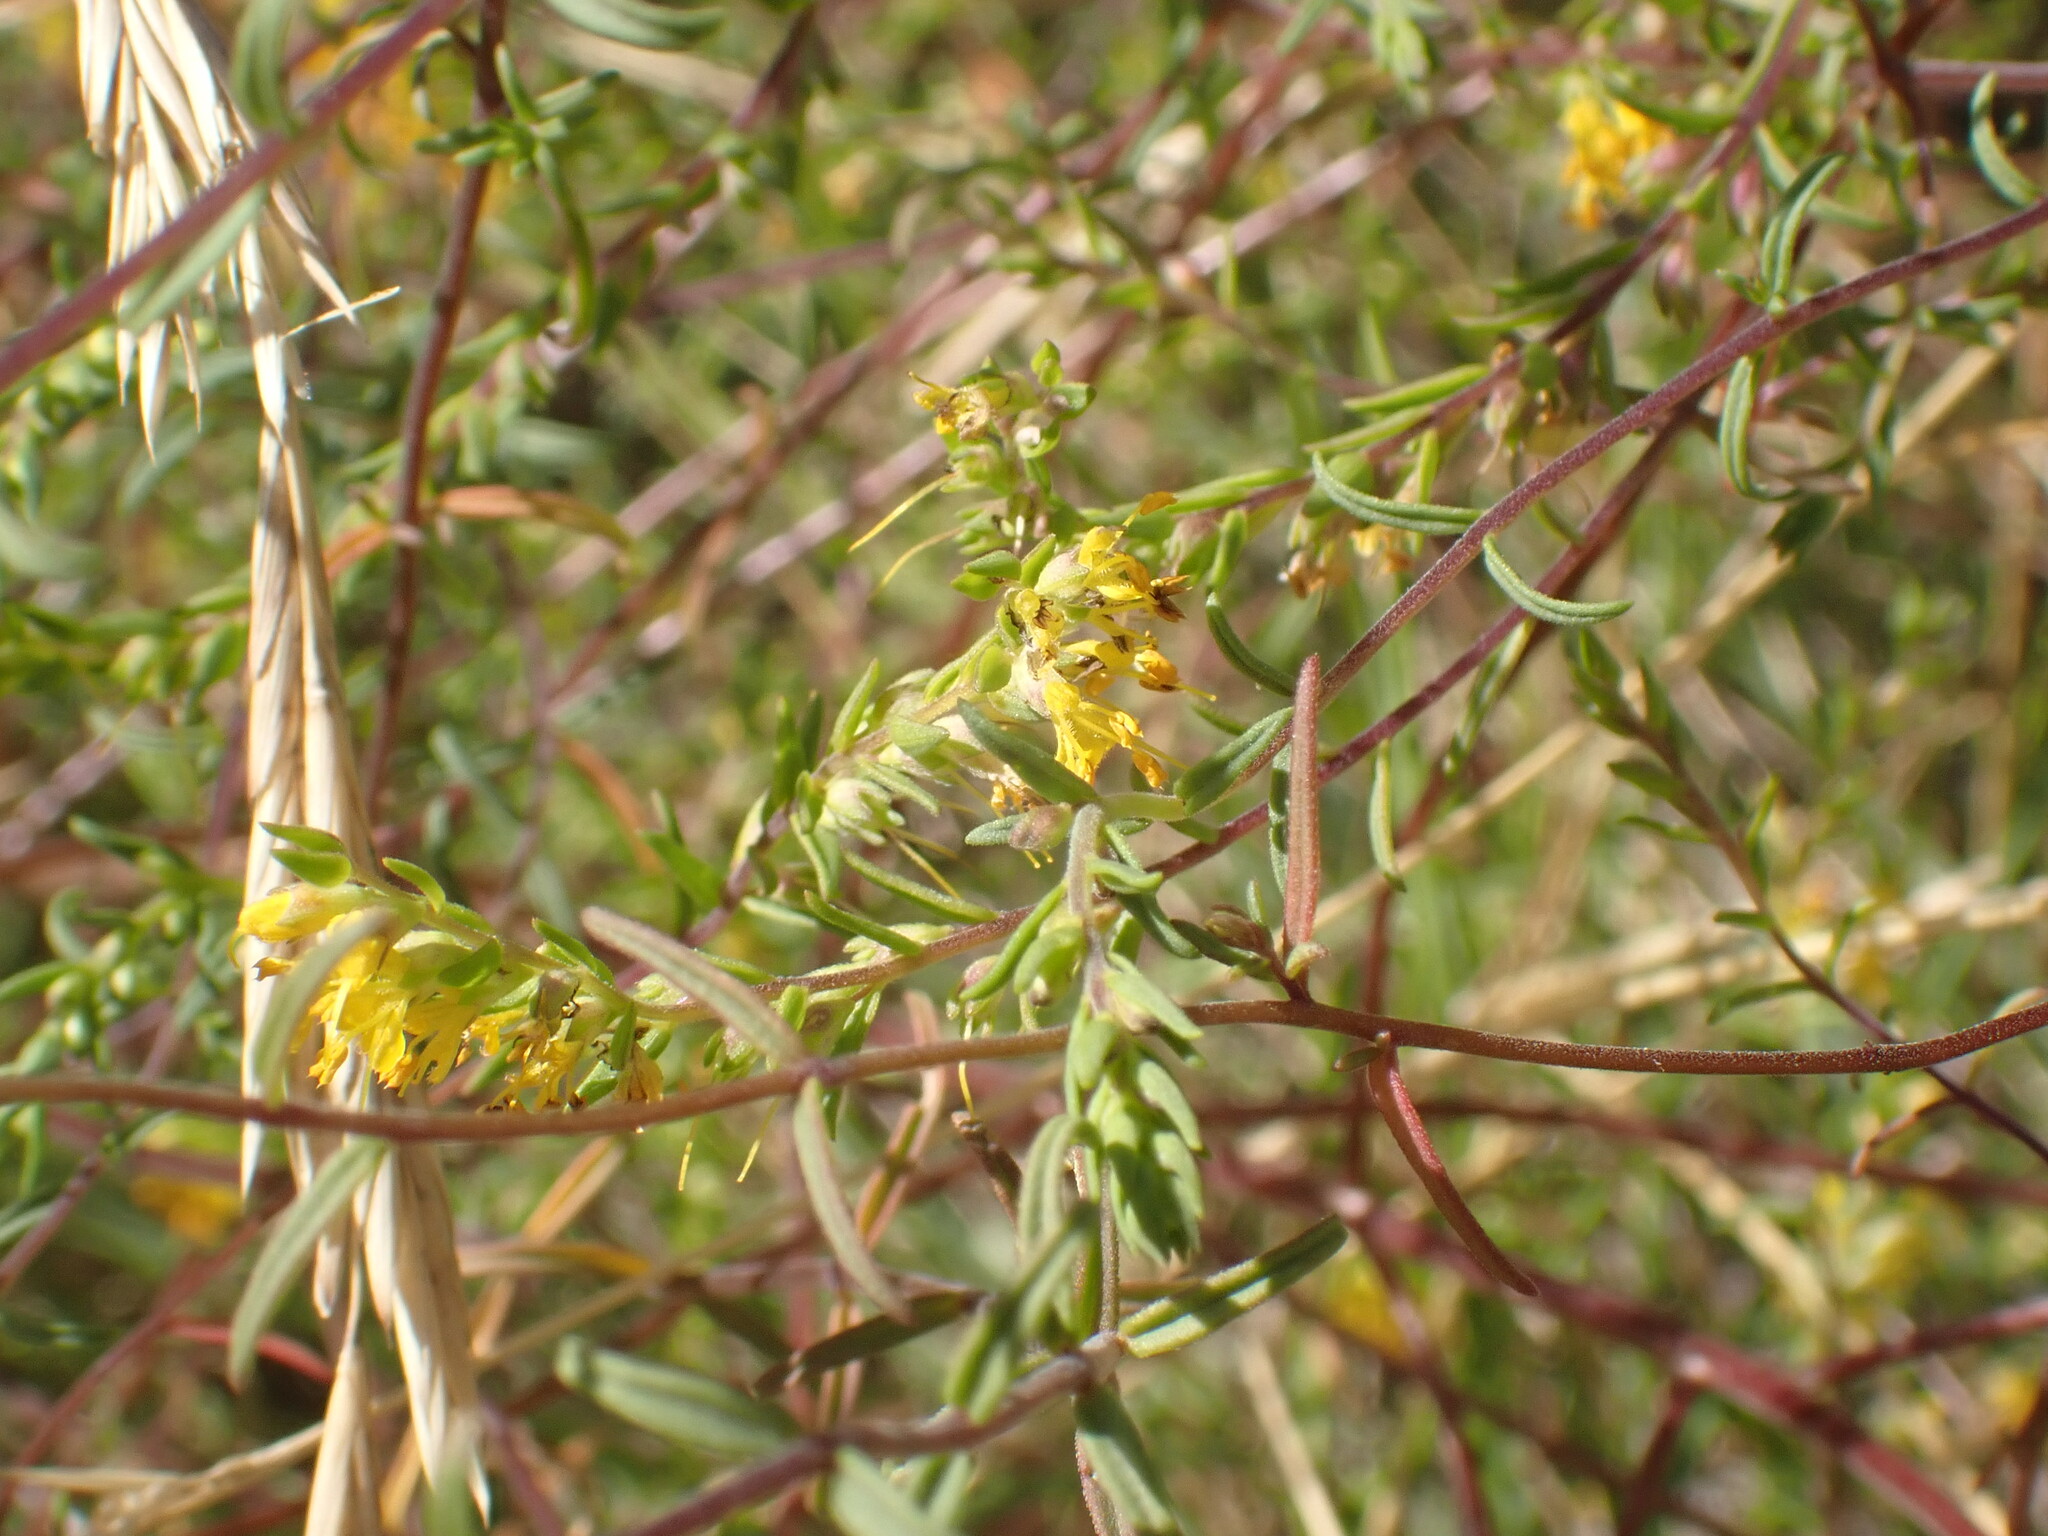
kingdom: Plantae
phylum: Tracheophyta
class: Magnoliopsida
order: Lamiales
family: Orobanchaceae
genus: Odontites
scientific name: Odontites luteus
